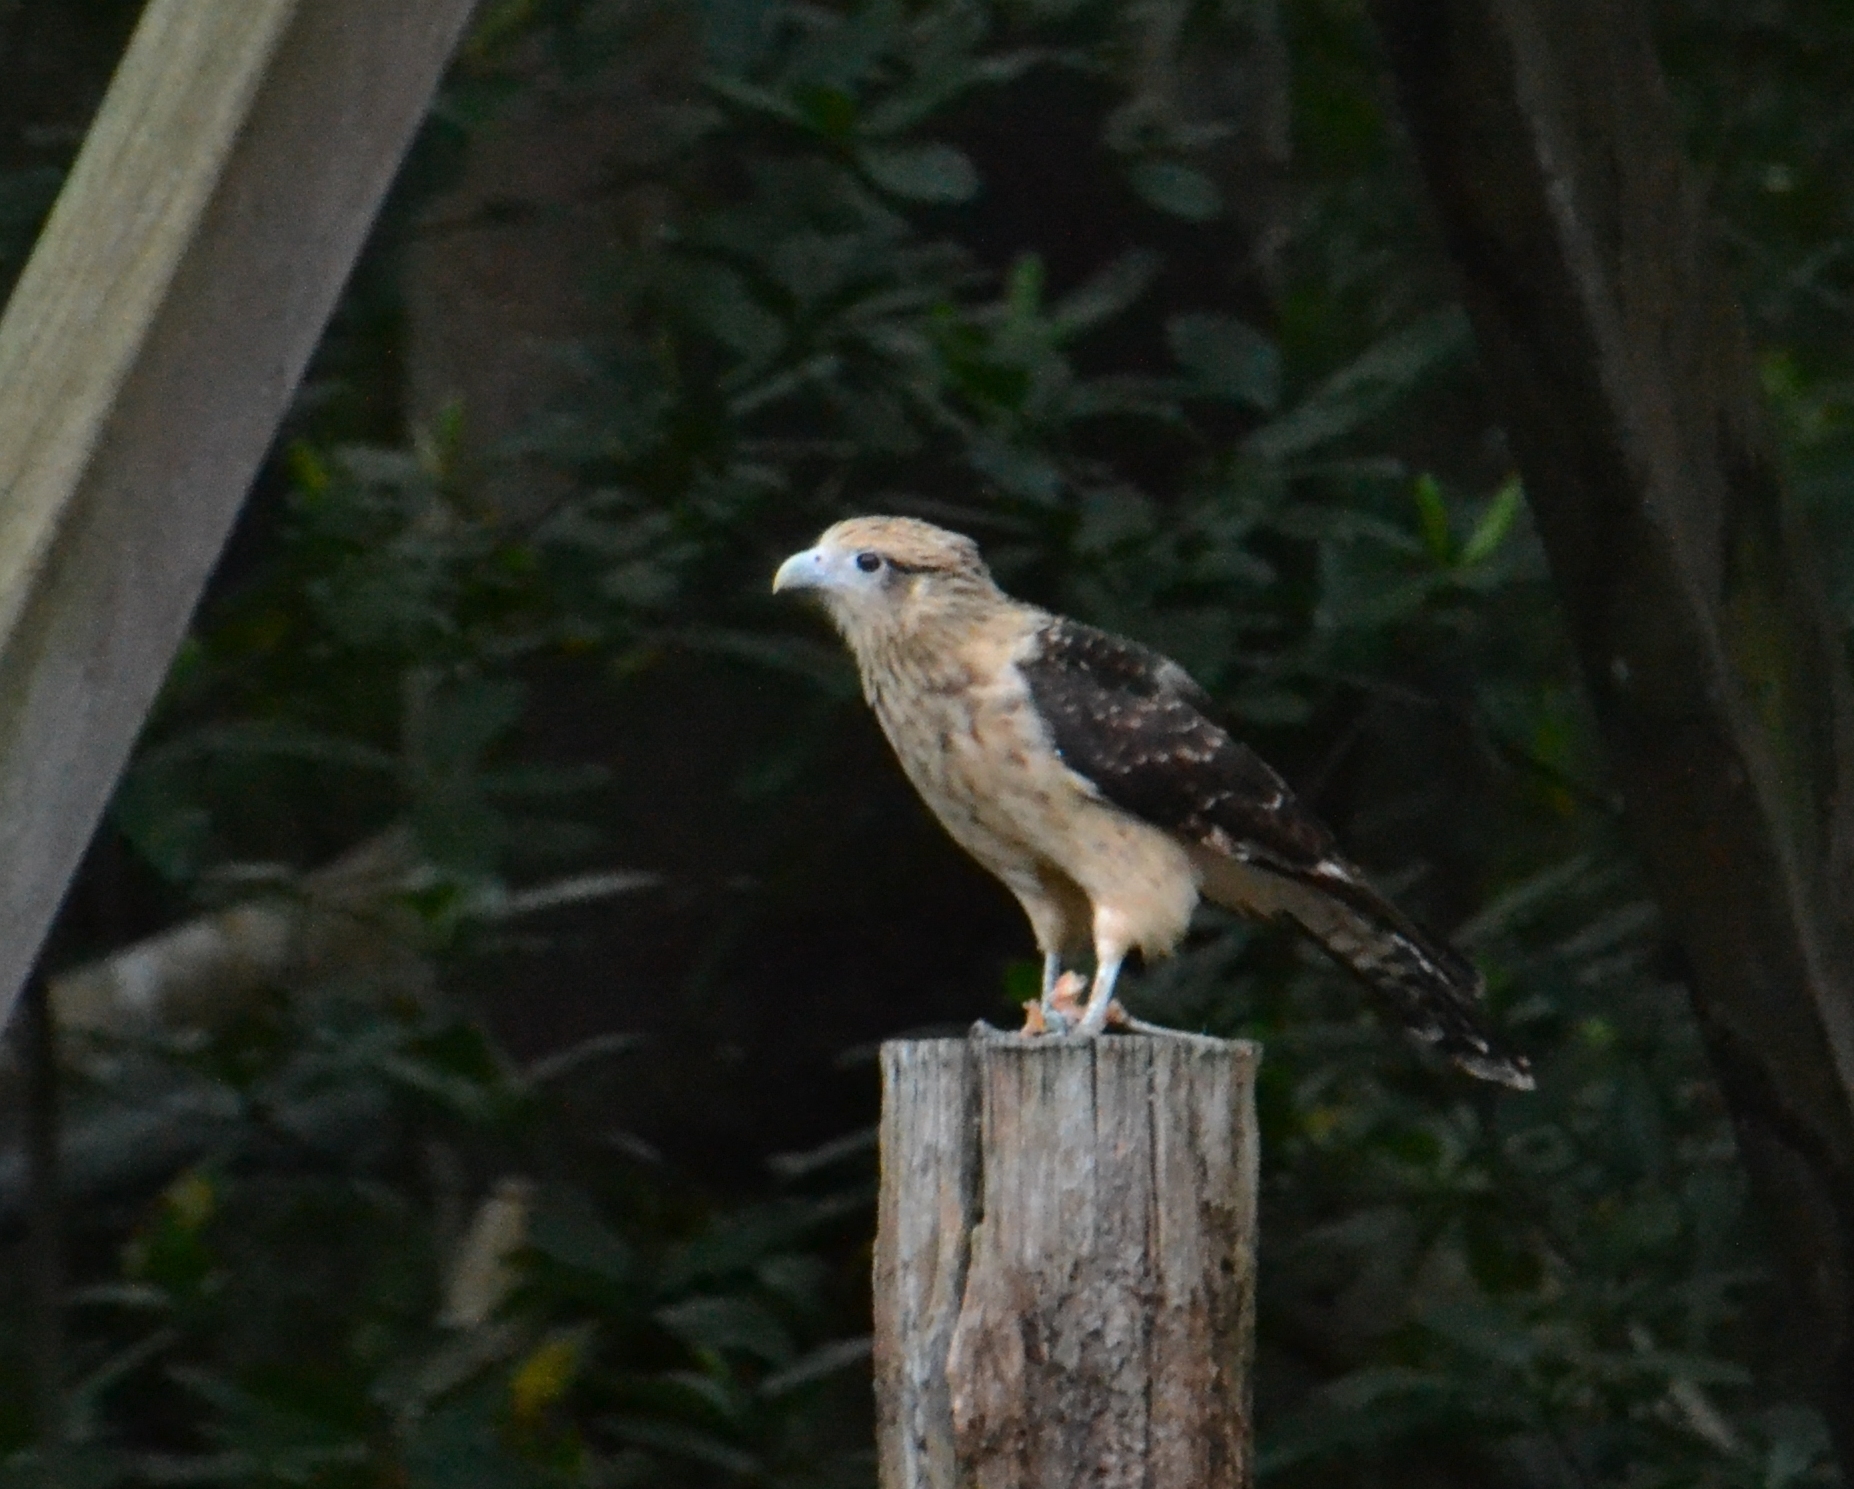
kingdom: Animalia
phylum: Chordata
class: Aves
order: Falconiformes
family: Falconidae
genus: Daptrius
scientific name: Daptrius
